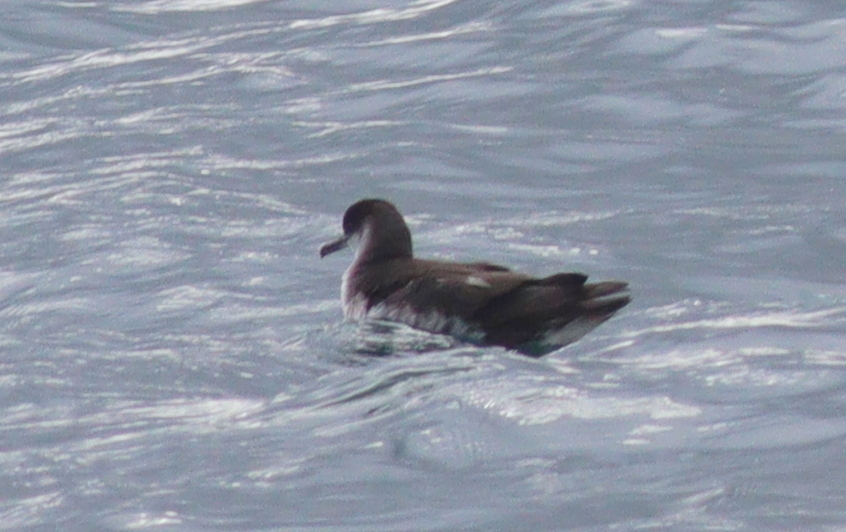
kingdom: Animalia
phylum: Chordata
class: Aves
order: Procellariiformes
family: Procellariidae
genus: Puffinus
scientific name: Puffinus puffinus
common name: Manx shearwater
